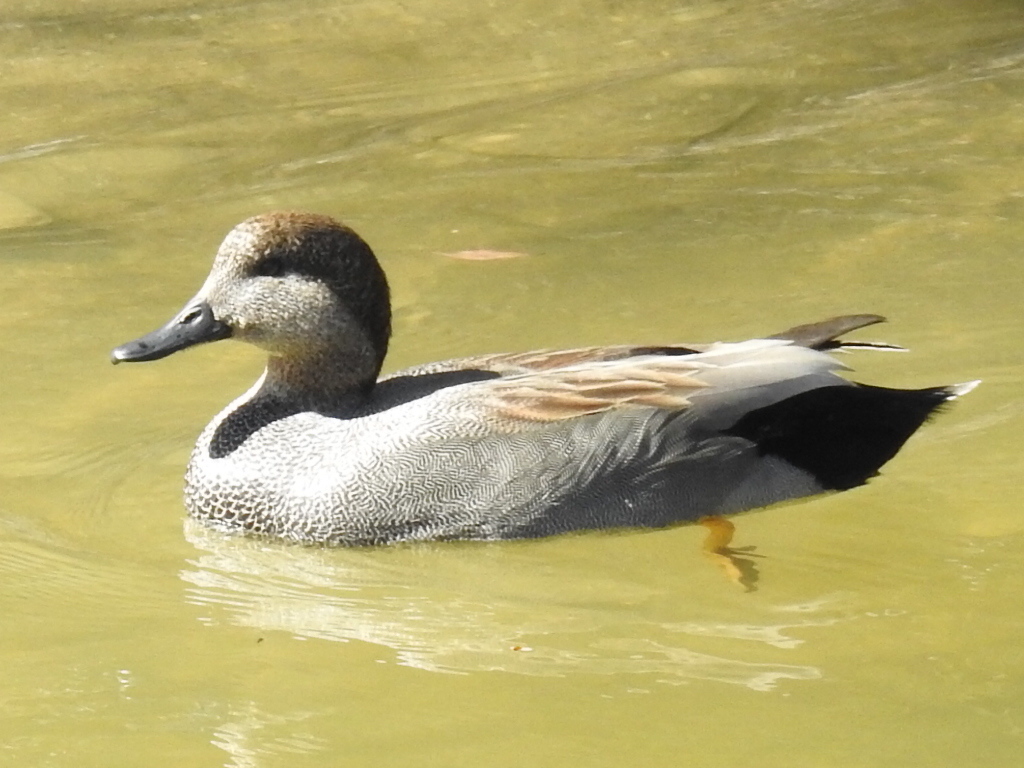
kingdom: Animalia
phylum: Chordata
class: Aves
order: Anseriformes
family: Anatidae
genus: Mareca
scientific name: Mareca strepera
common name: Gadwall
